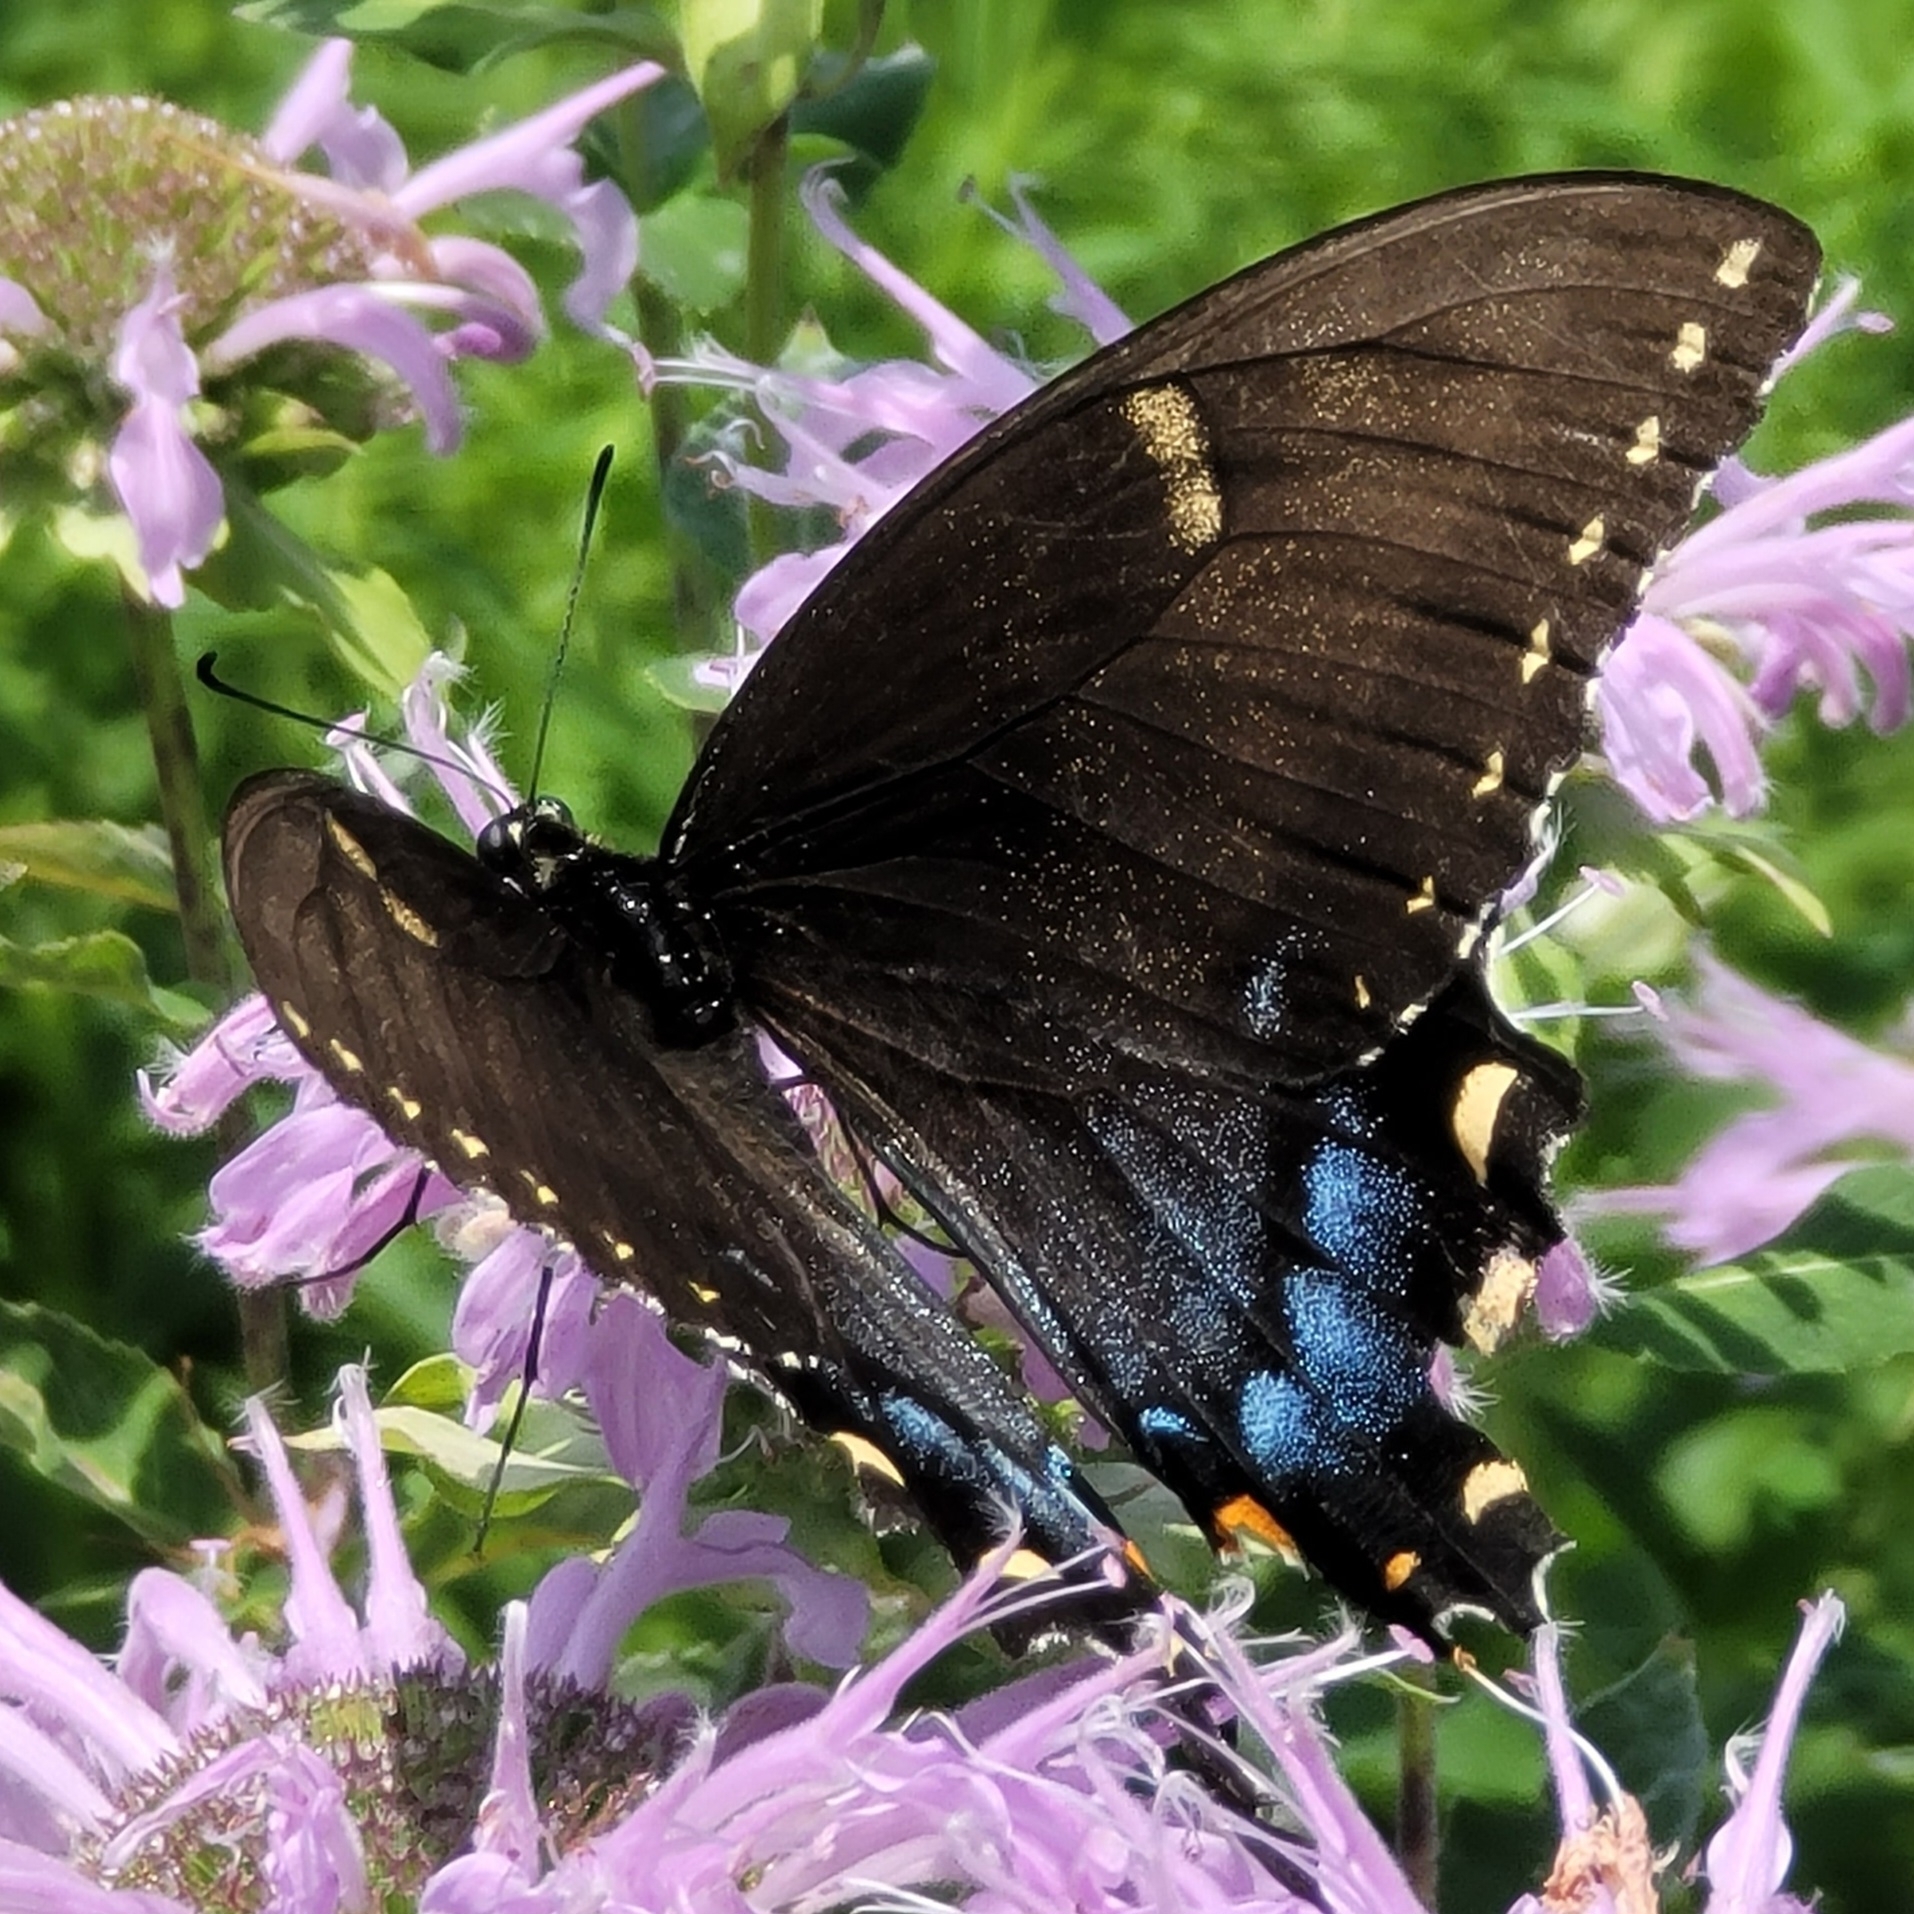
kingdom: Animalia
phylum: Arthropoda
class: Insecta
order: Lepidoptera
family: Papilionidae
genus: Papilio
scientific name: Papilio glaucus
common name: Tiger swallowtail
